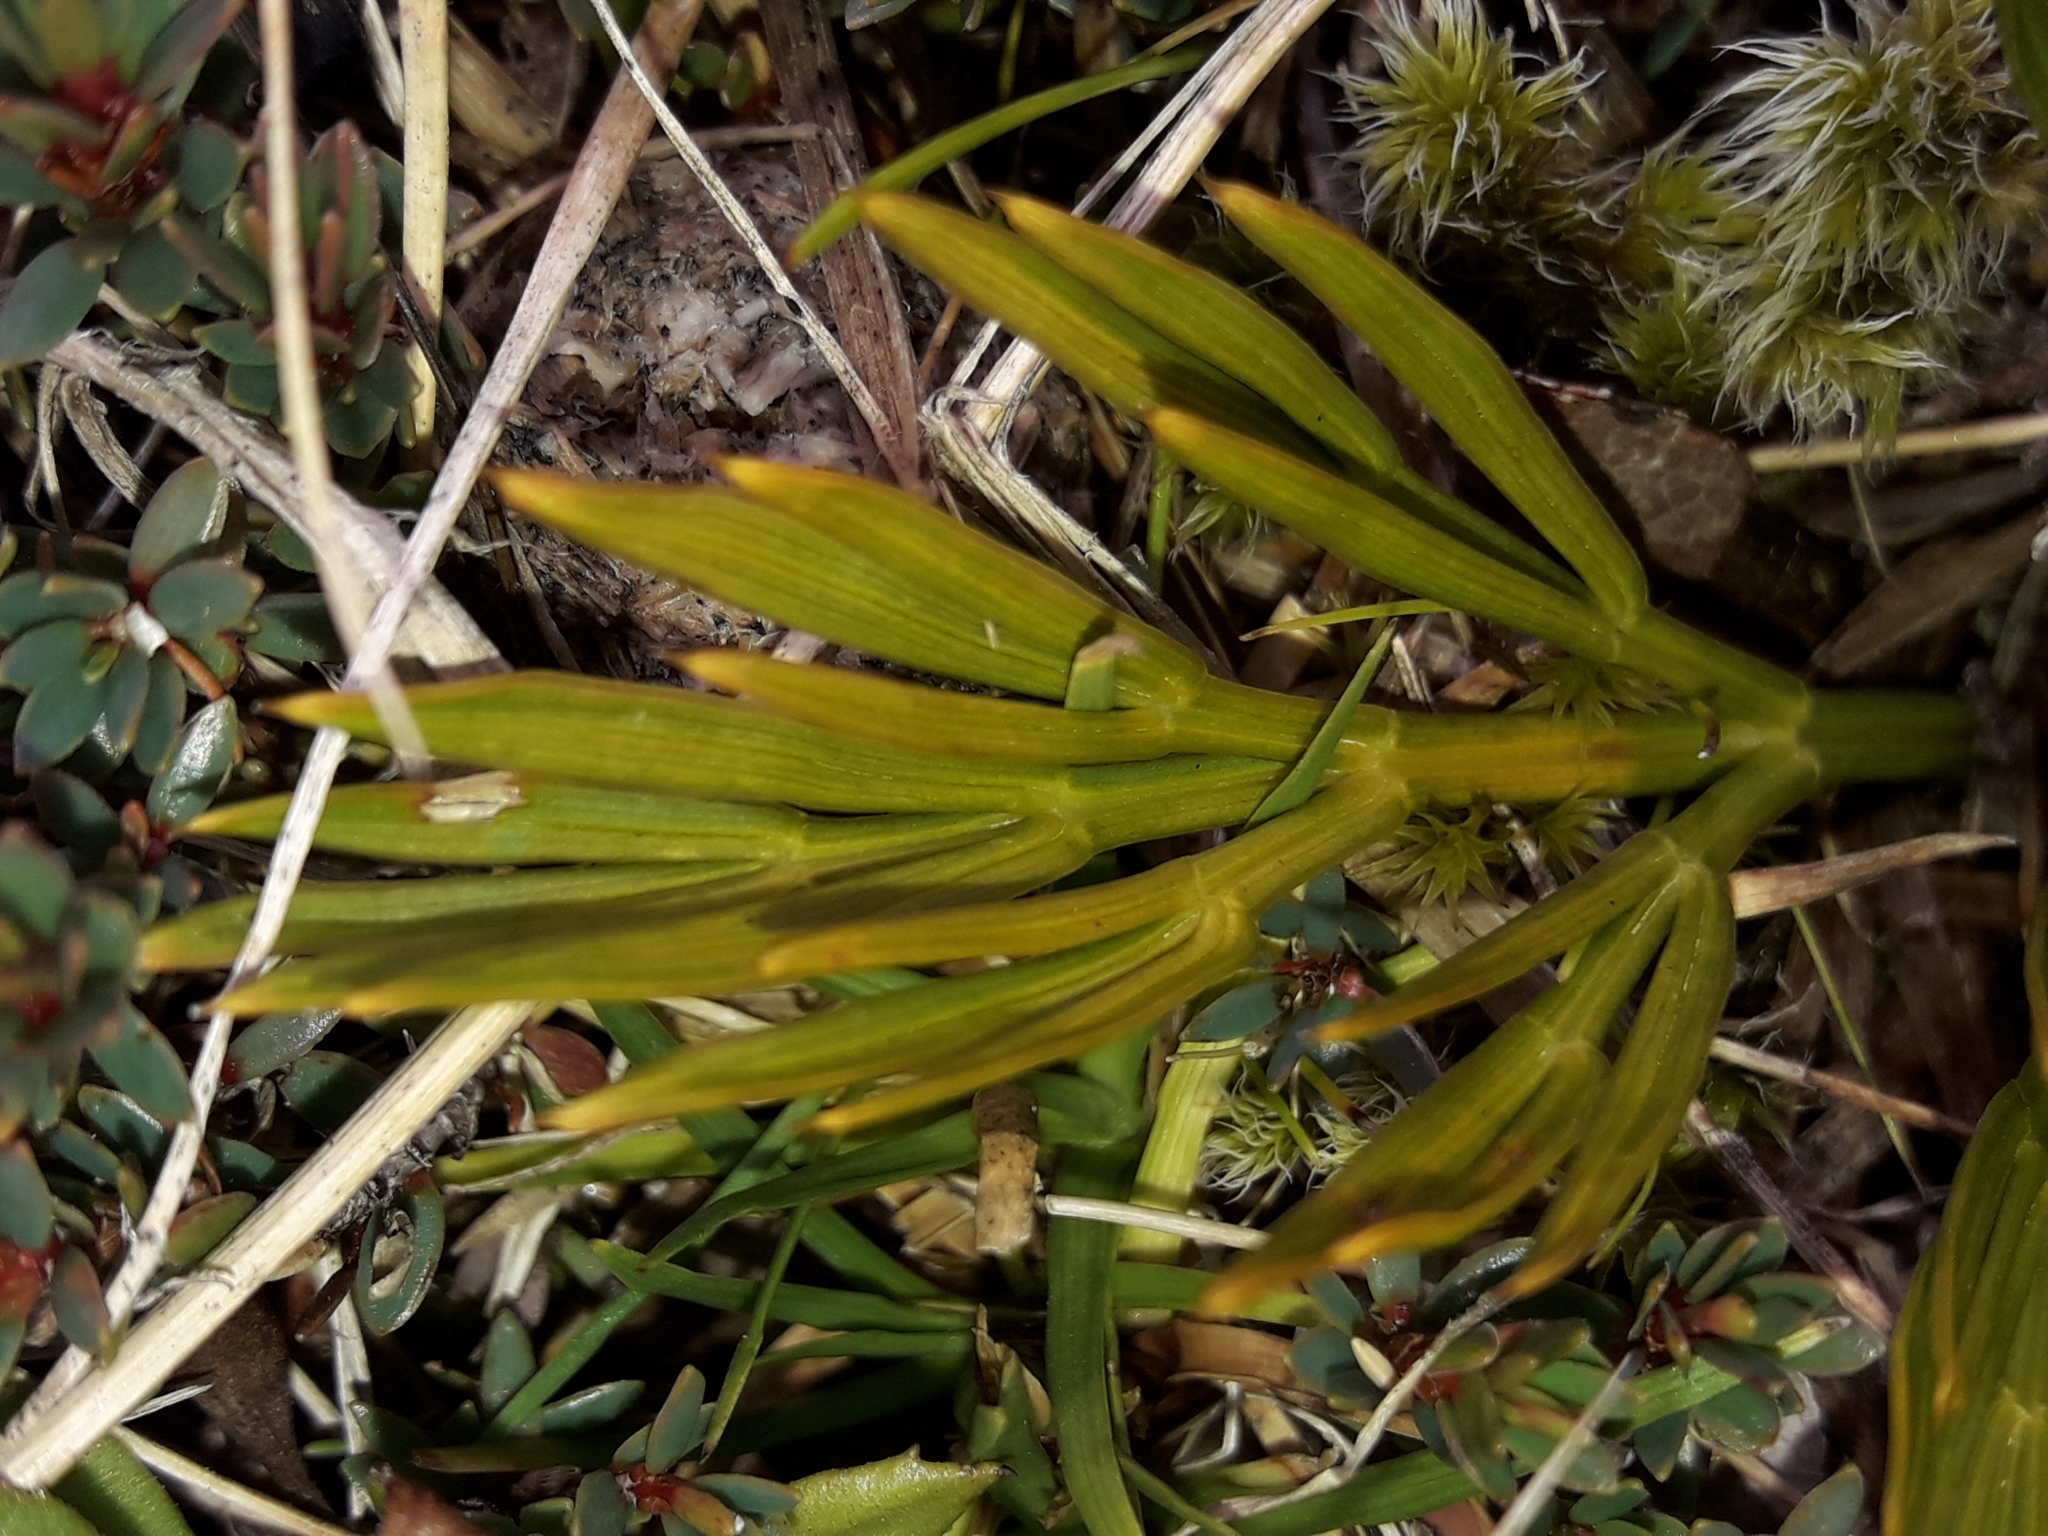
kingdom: Plantae
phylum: Tracheophyta
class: Magnoliopsida
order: Apiales
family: Apiaceae
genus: Aciphylla
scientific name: Aciphylla divisa
